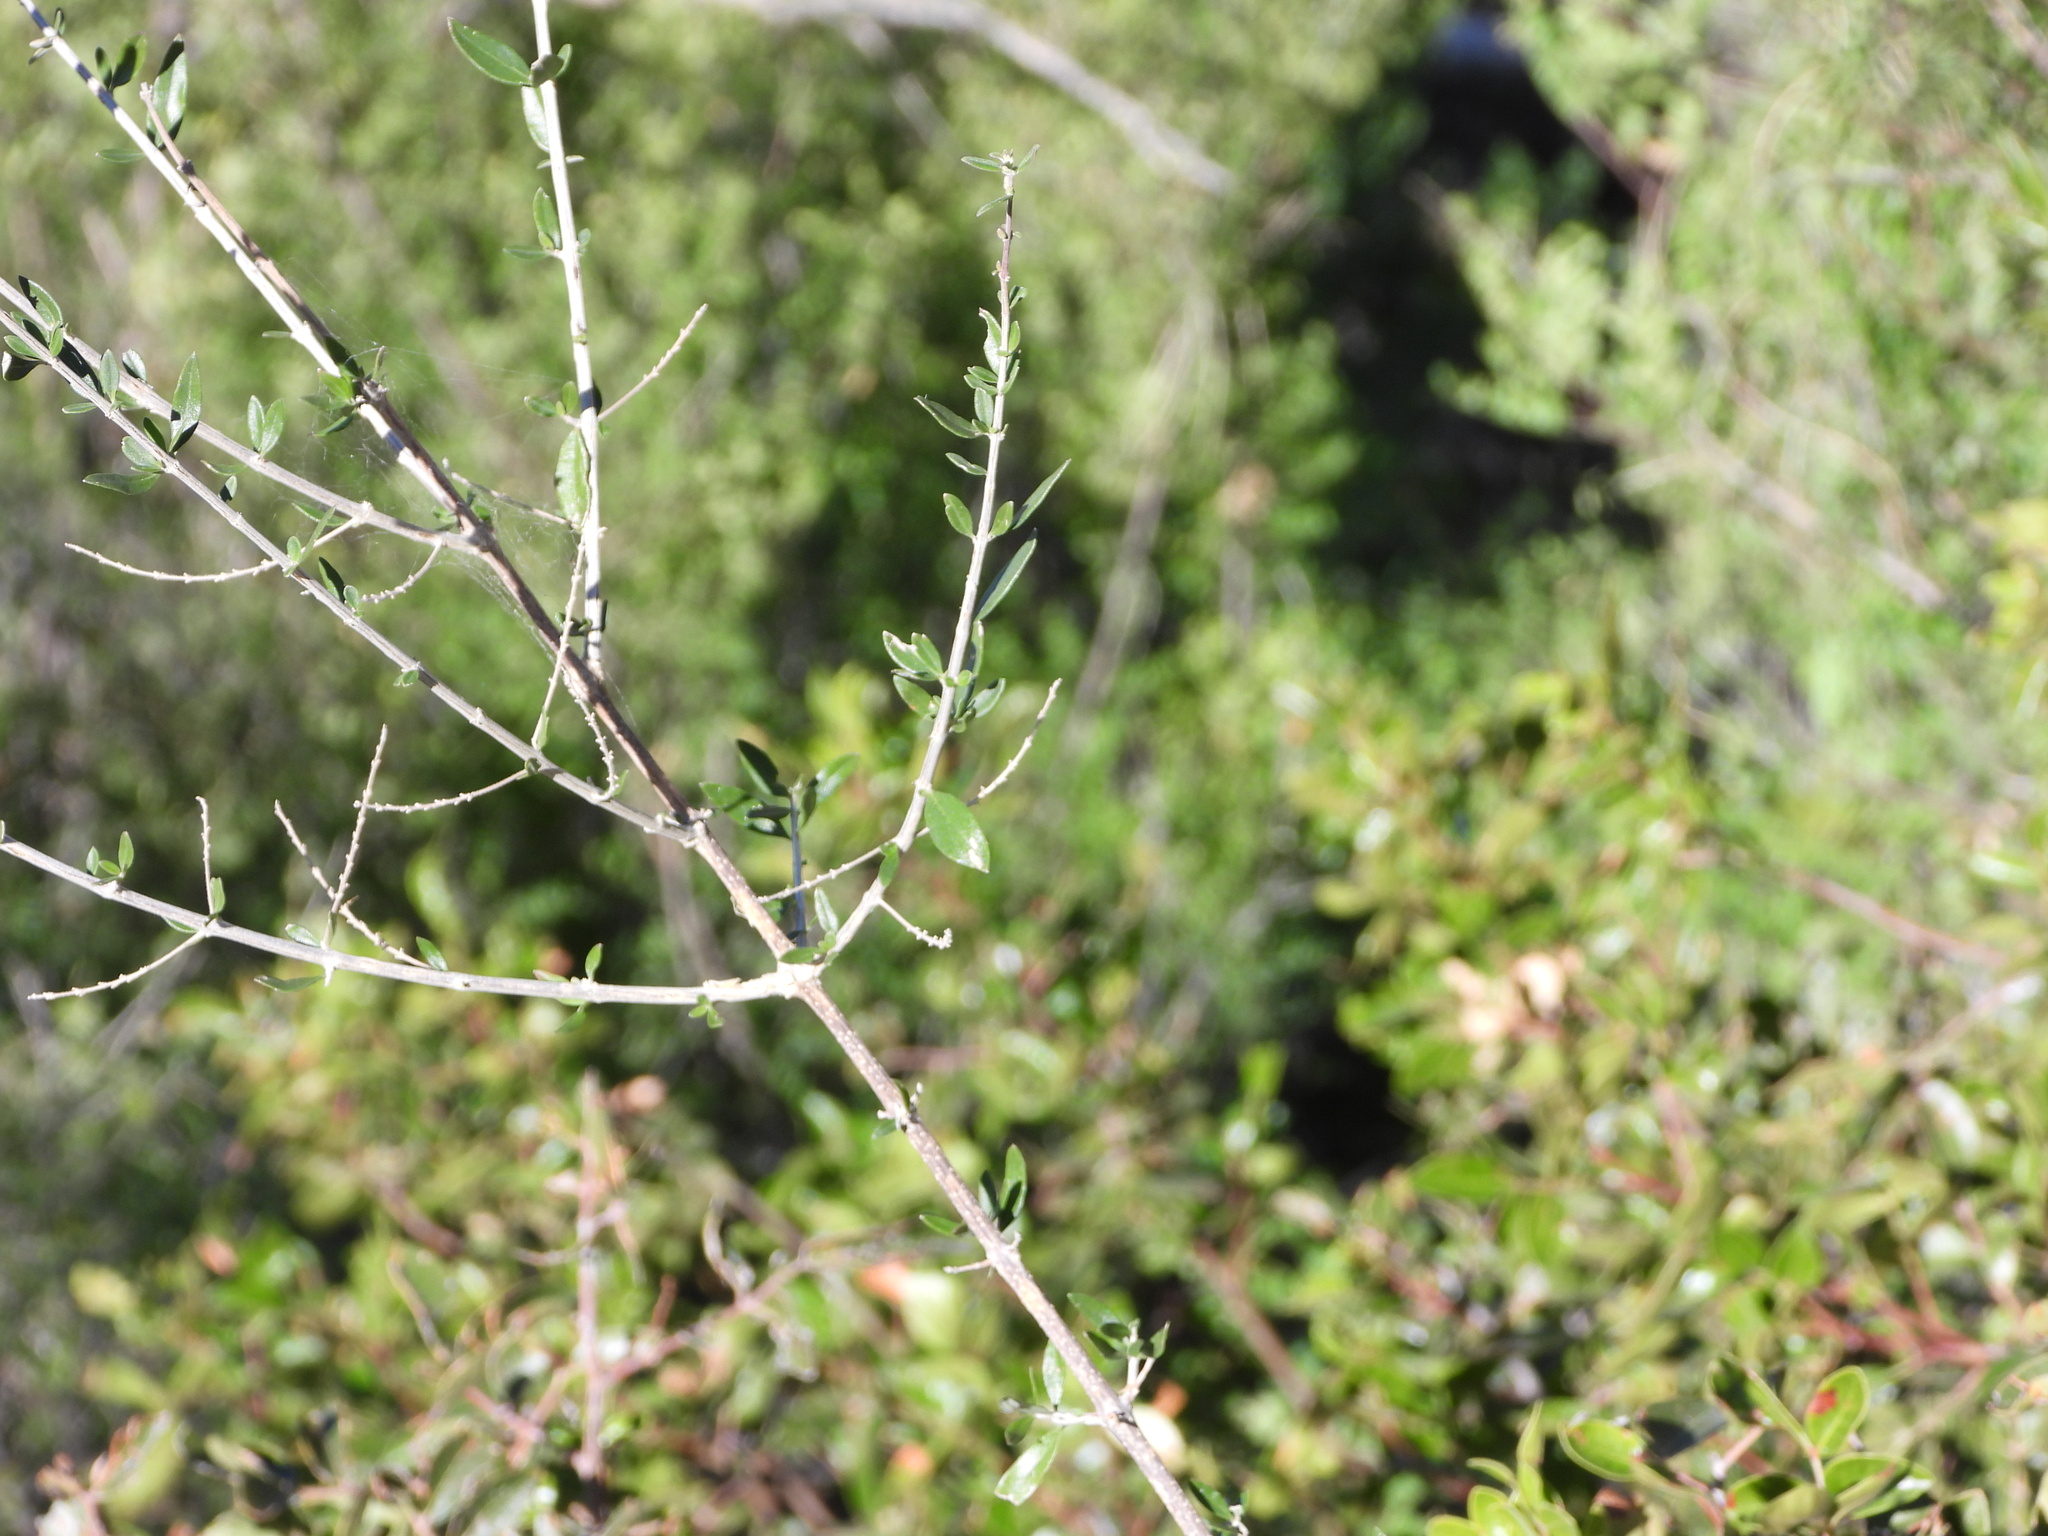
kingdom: Plantae
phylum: Tracheophyta
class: Magnoliopsida
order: Lamiales
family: Verbenaceae
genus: Aloysia
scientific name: Aloysia gratissima
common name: Common bee-brush
